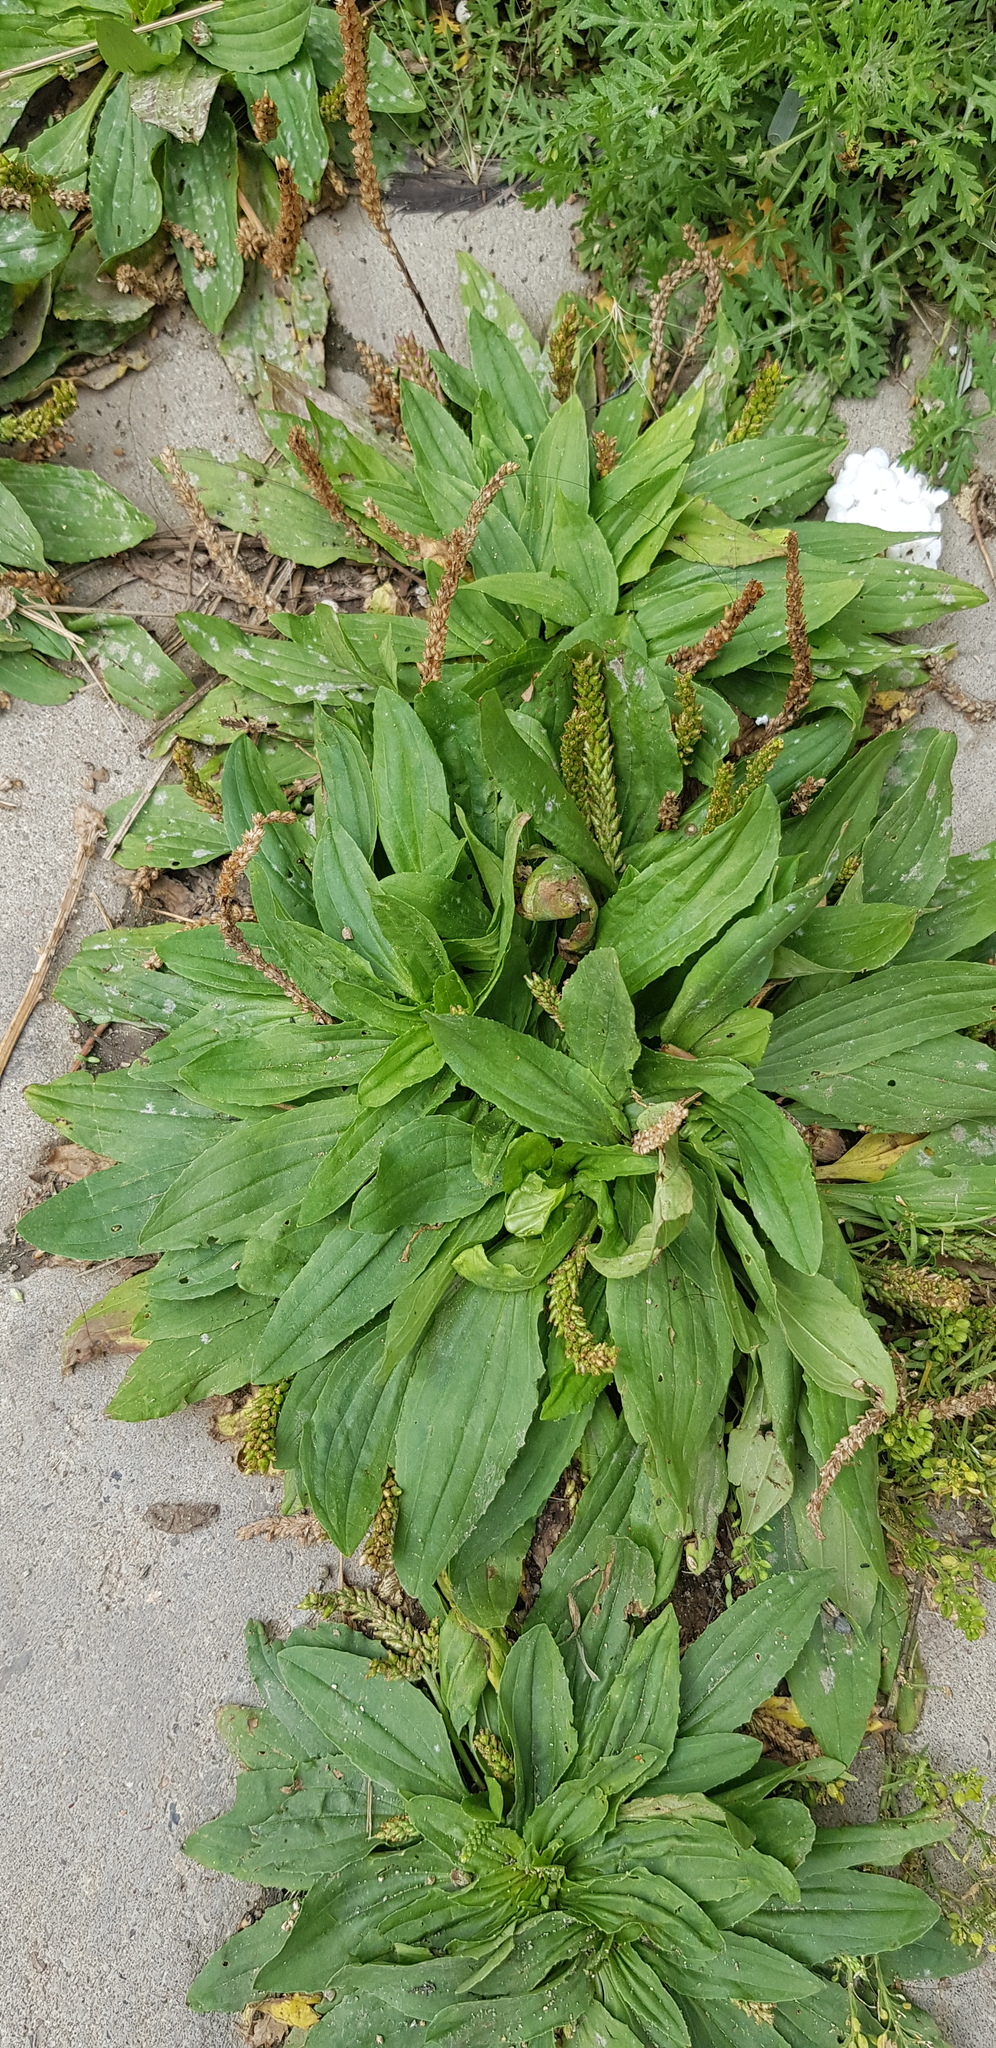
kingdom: Plantae
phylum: Tracheophyta
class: Magnoliopsida
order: Lamiales
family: Plantaginaceae
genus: Plantago
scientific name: Plantago depressa
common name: Depressed plantain
